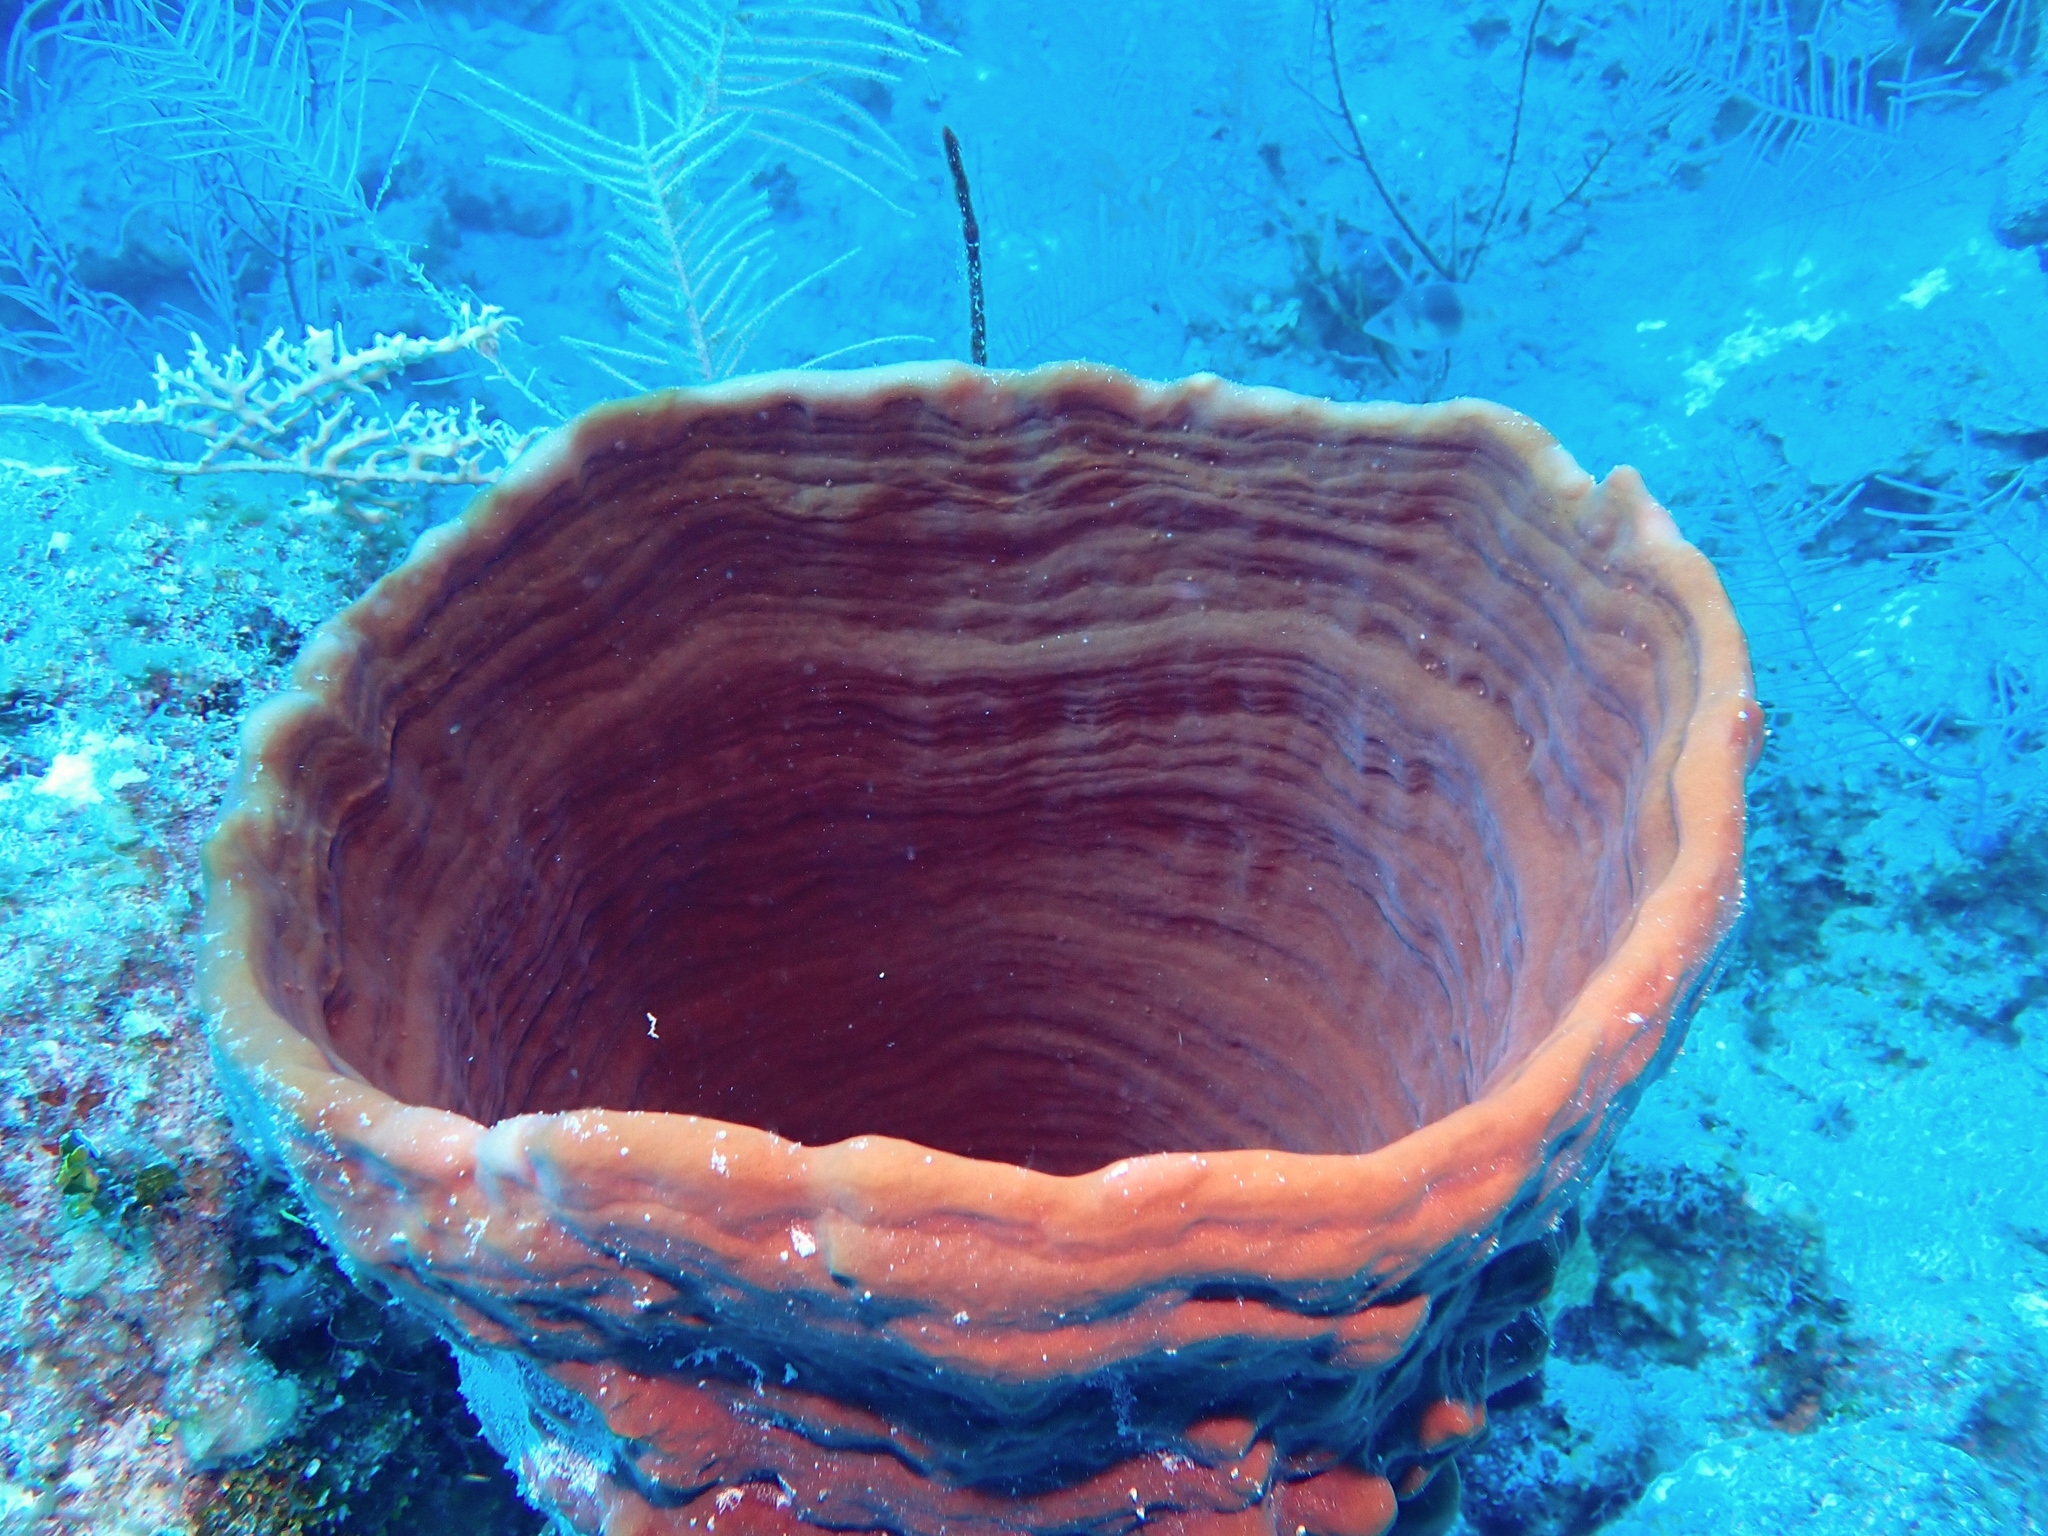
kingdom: Animalia
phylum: Porifera
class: Demospongiae
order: Haplosclerida
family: Niphatidae
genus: Cribrochalina
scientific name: Cribrochalina vasculum
